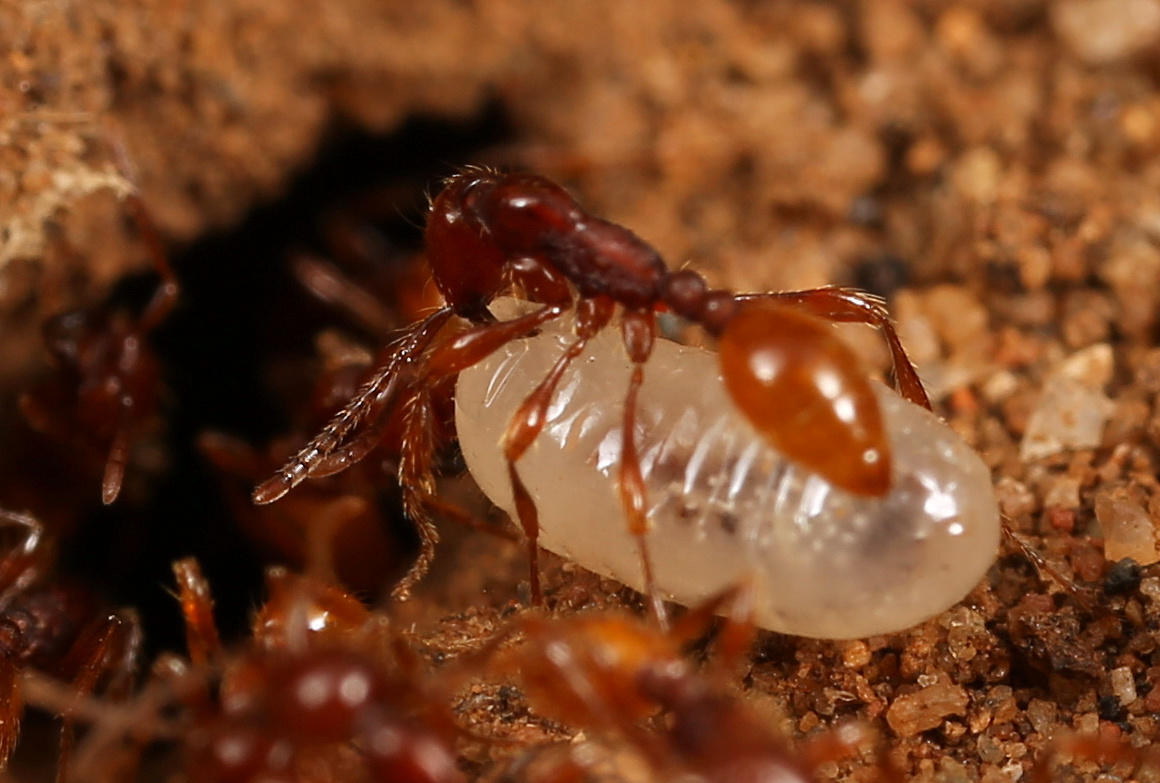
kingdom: Animalia
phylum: Arthropoda
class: Insecta
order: Hymenoptera
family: Formicidae
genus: Aenictus
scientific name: Aenictus eugenii
